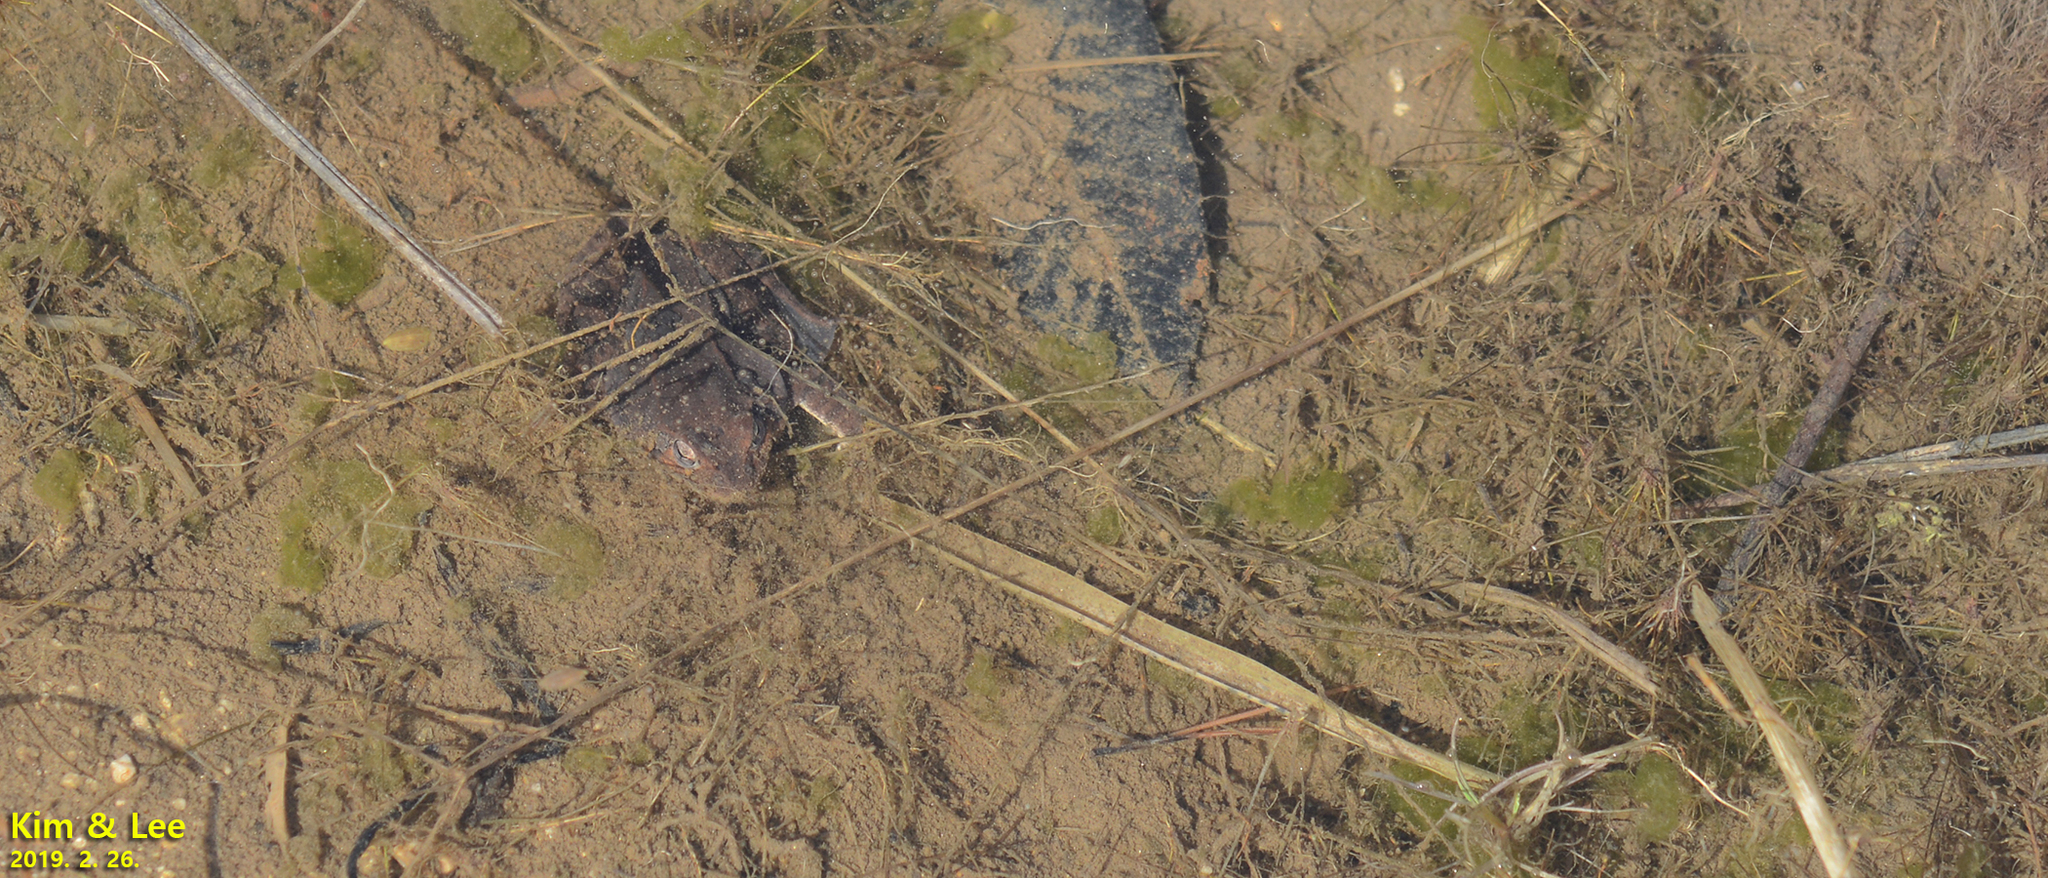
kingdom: Animalia
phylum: Chordata
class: Amphibia
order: Anura
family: Ranidae
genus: Rana
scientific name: Rana uenoi
